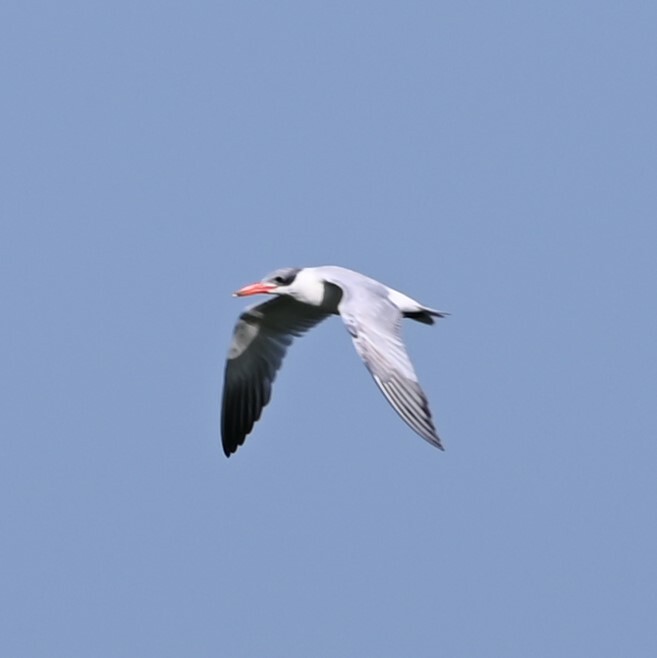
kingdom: Animalia
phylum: Chordata
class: Aves
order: Charadriiformes
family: Laridae
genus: Hydroprogne
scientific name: Hydroprogne caspia
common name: Caspian tern
